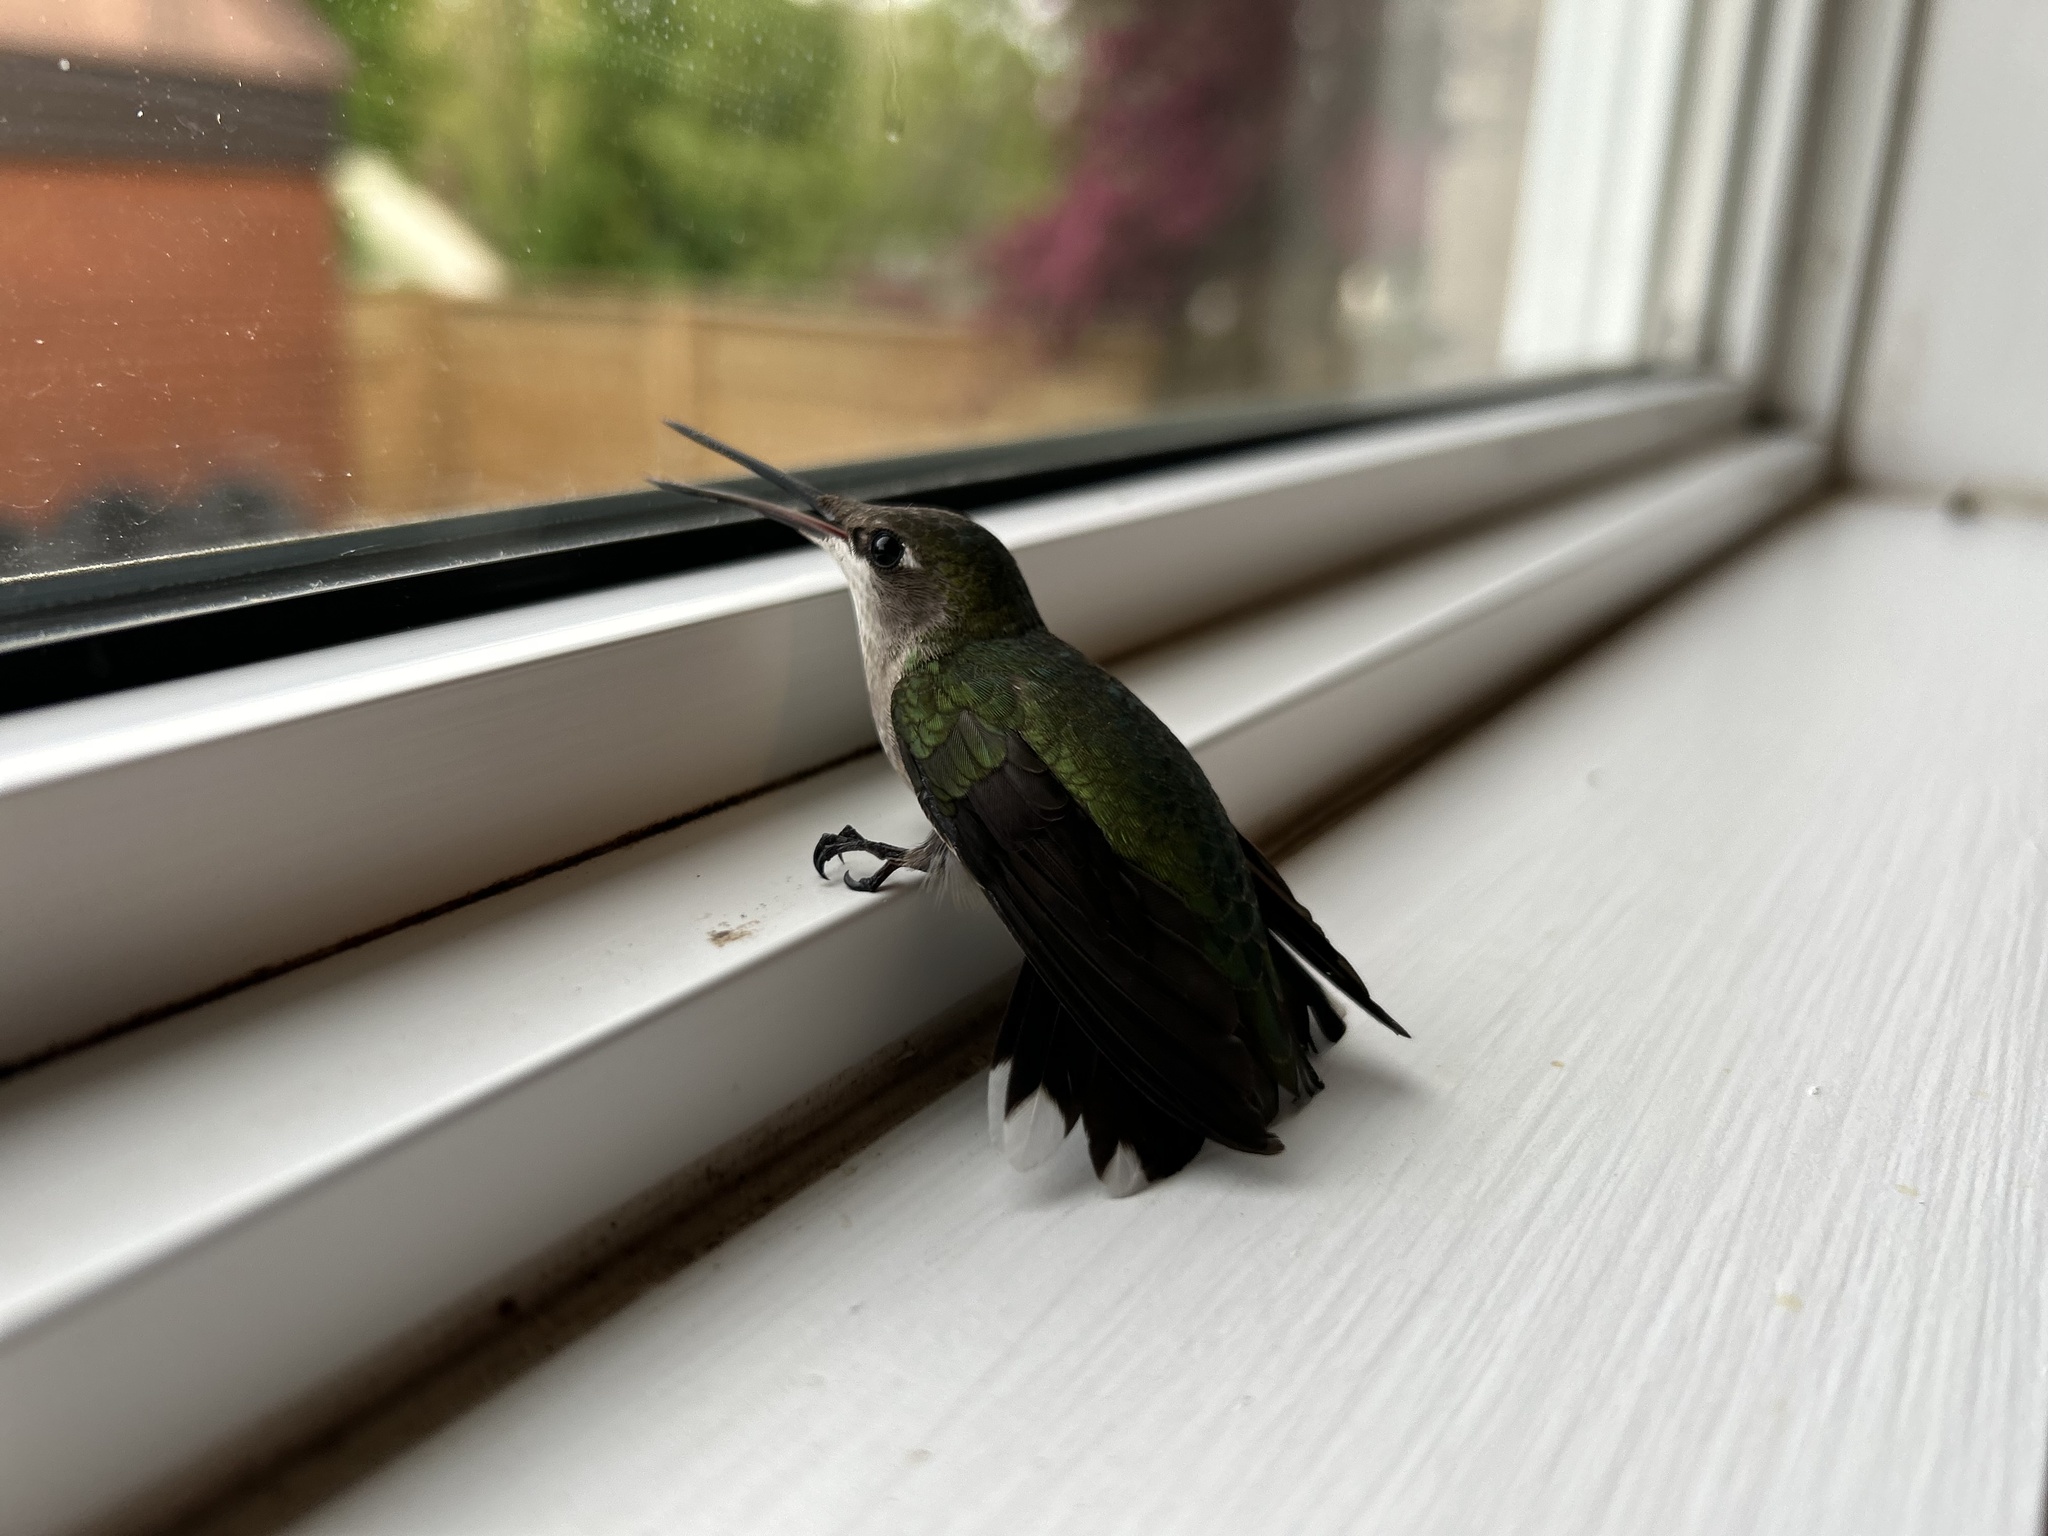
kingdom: Animalia
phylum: Chordata
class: Aves
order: Apodiformes
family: Trochilidae
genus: Archilochus
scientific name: Archilochus colubris
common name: Ruby-throated hummingbird
